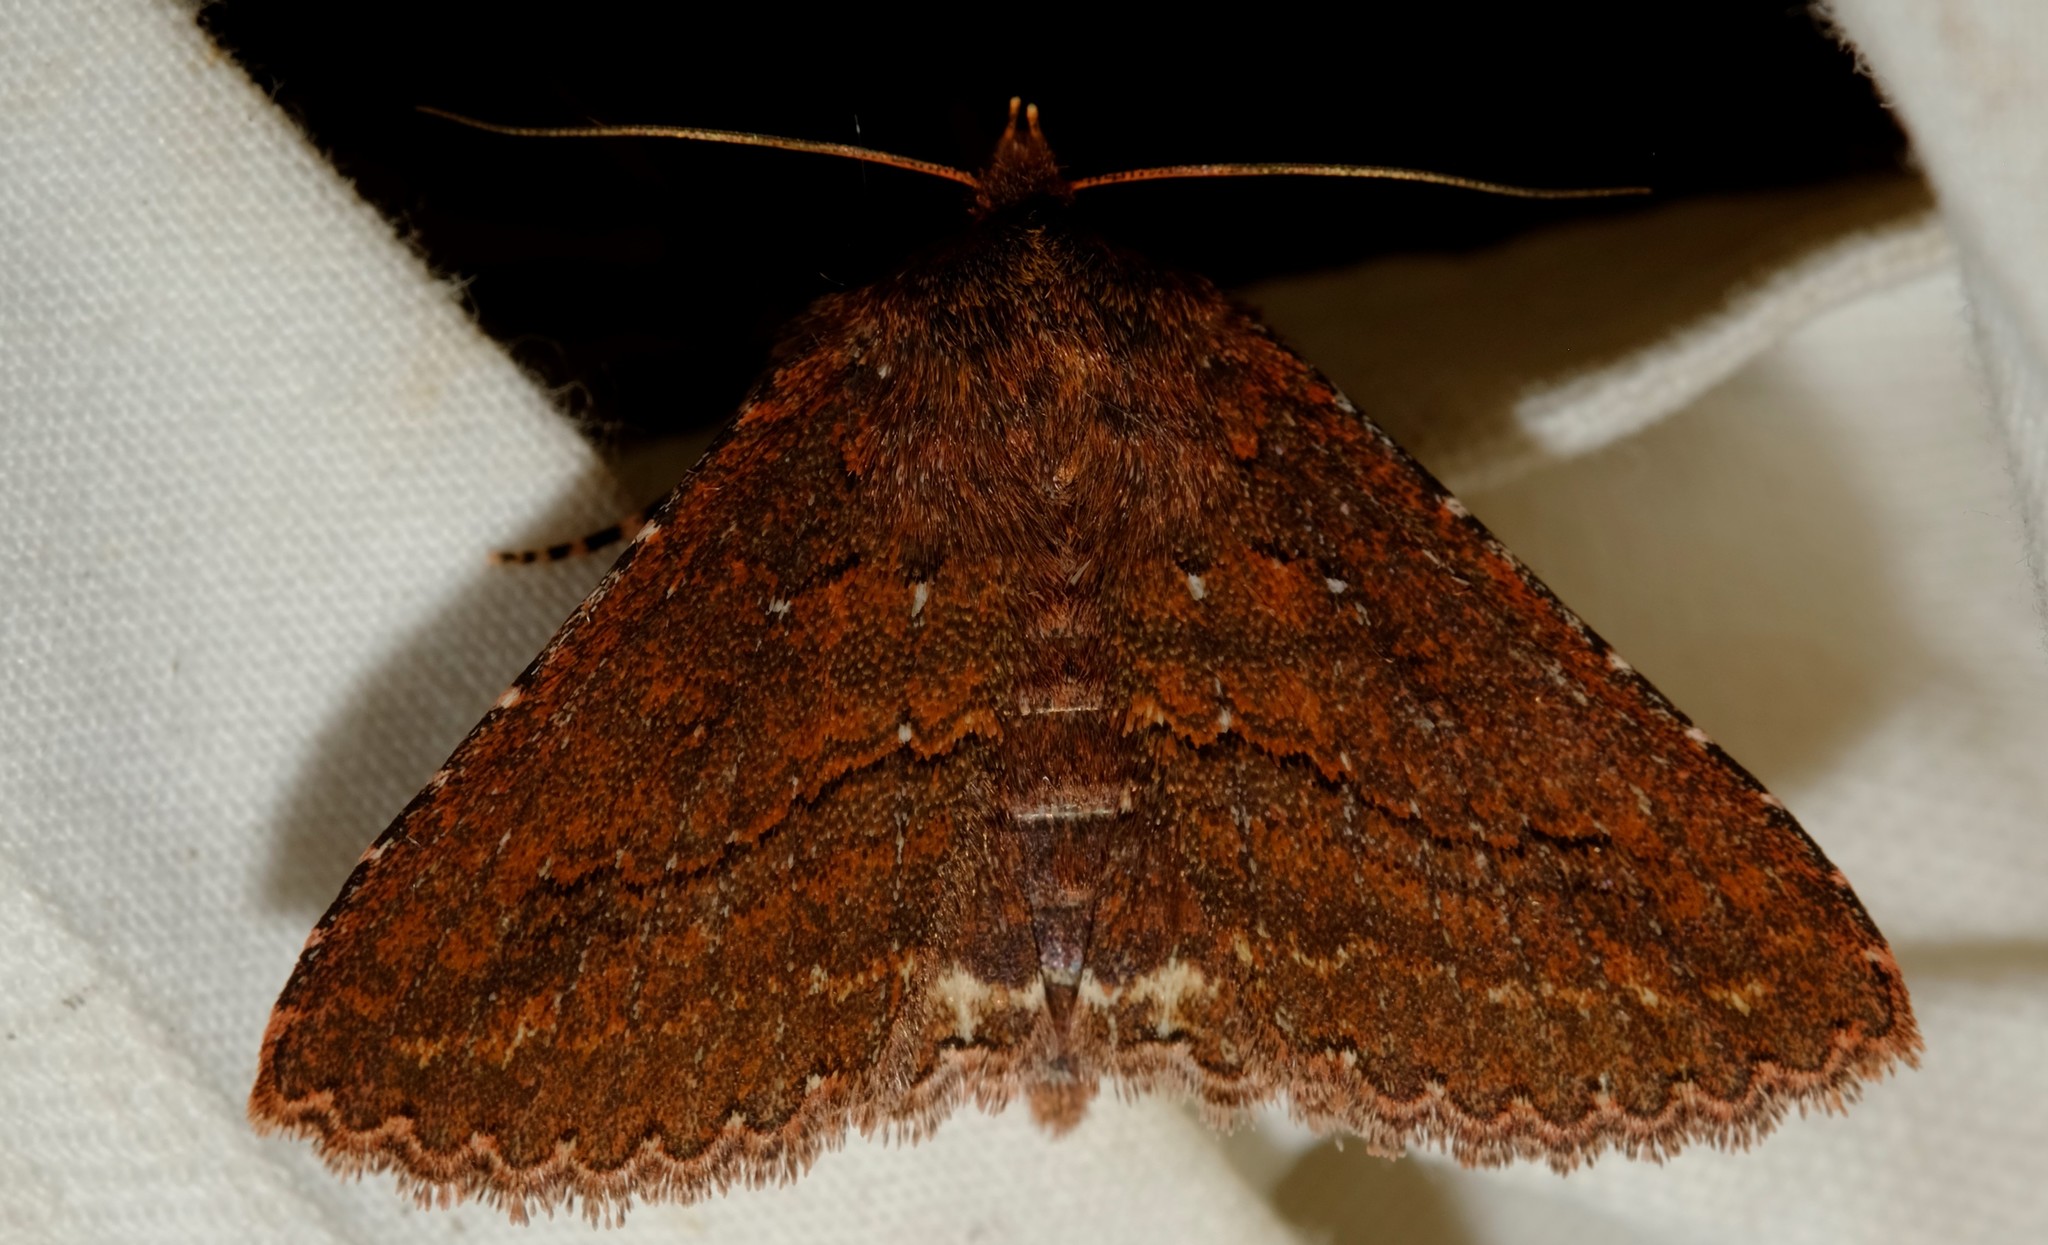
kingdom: Animalia
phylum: Arthropoda
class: Insecta
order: Lepidoptera
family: Erebidae
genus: Praxis
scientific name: Praxis porphyretica
